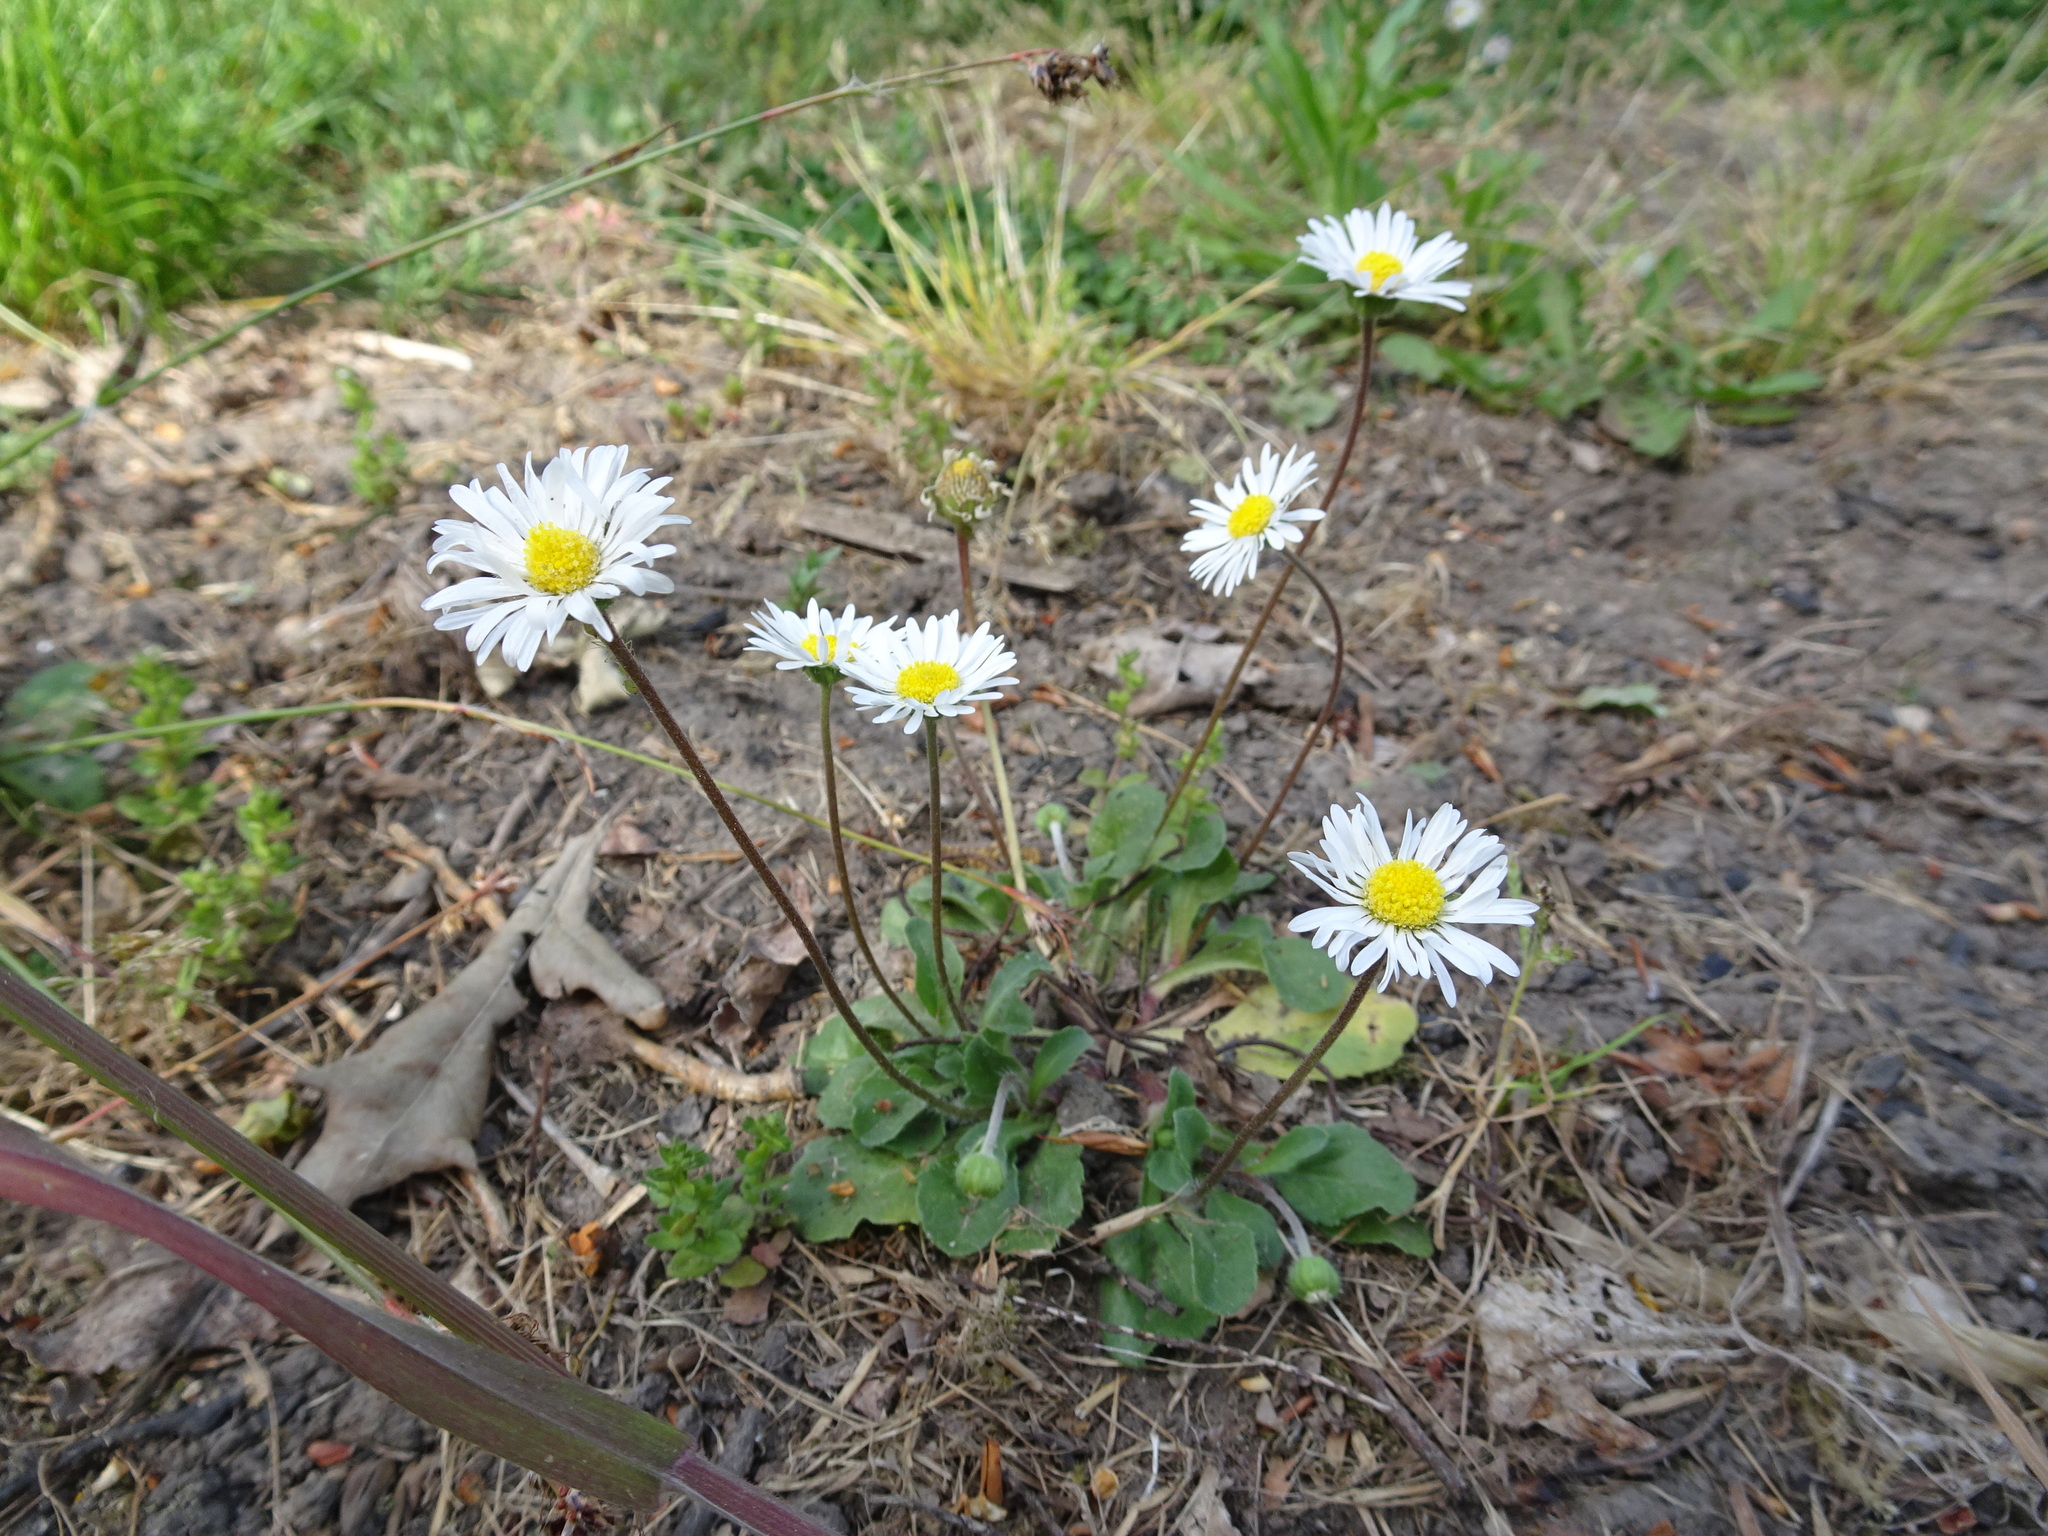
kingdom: Plantae
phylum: Tracheophyta
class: Magnoliopsida
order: Asterales
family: Asteraceae
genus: Bellis
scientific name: Bellis perennis
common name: Lawndaisy
